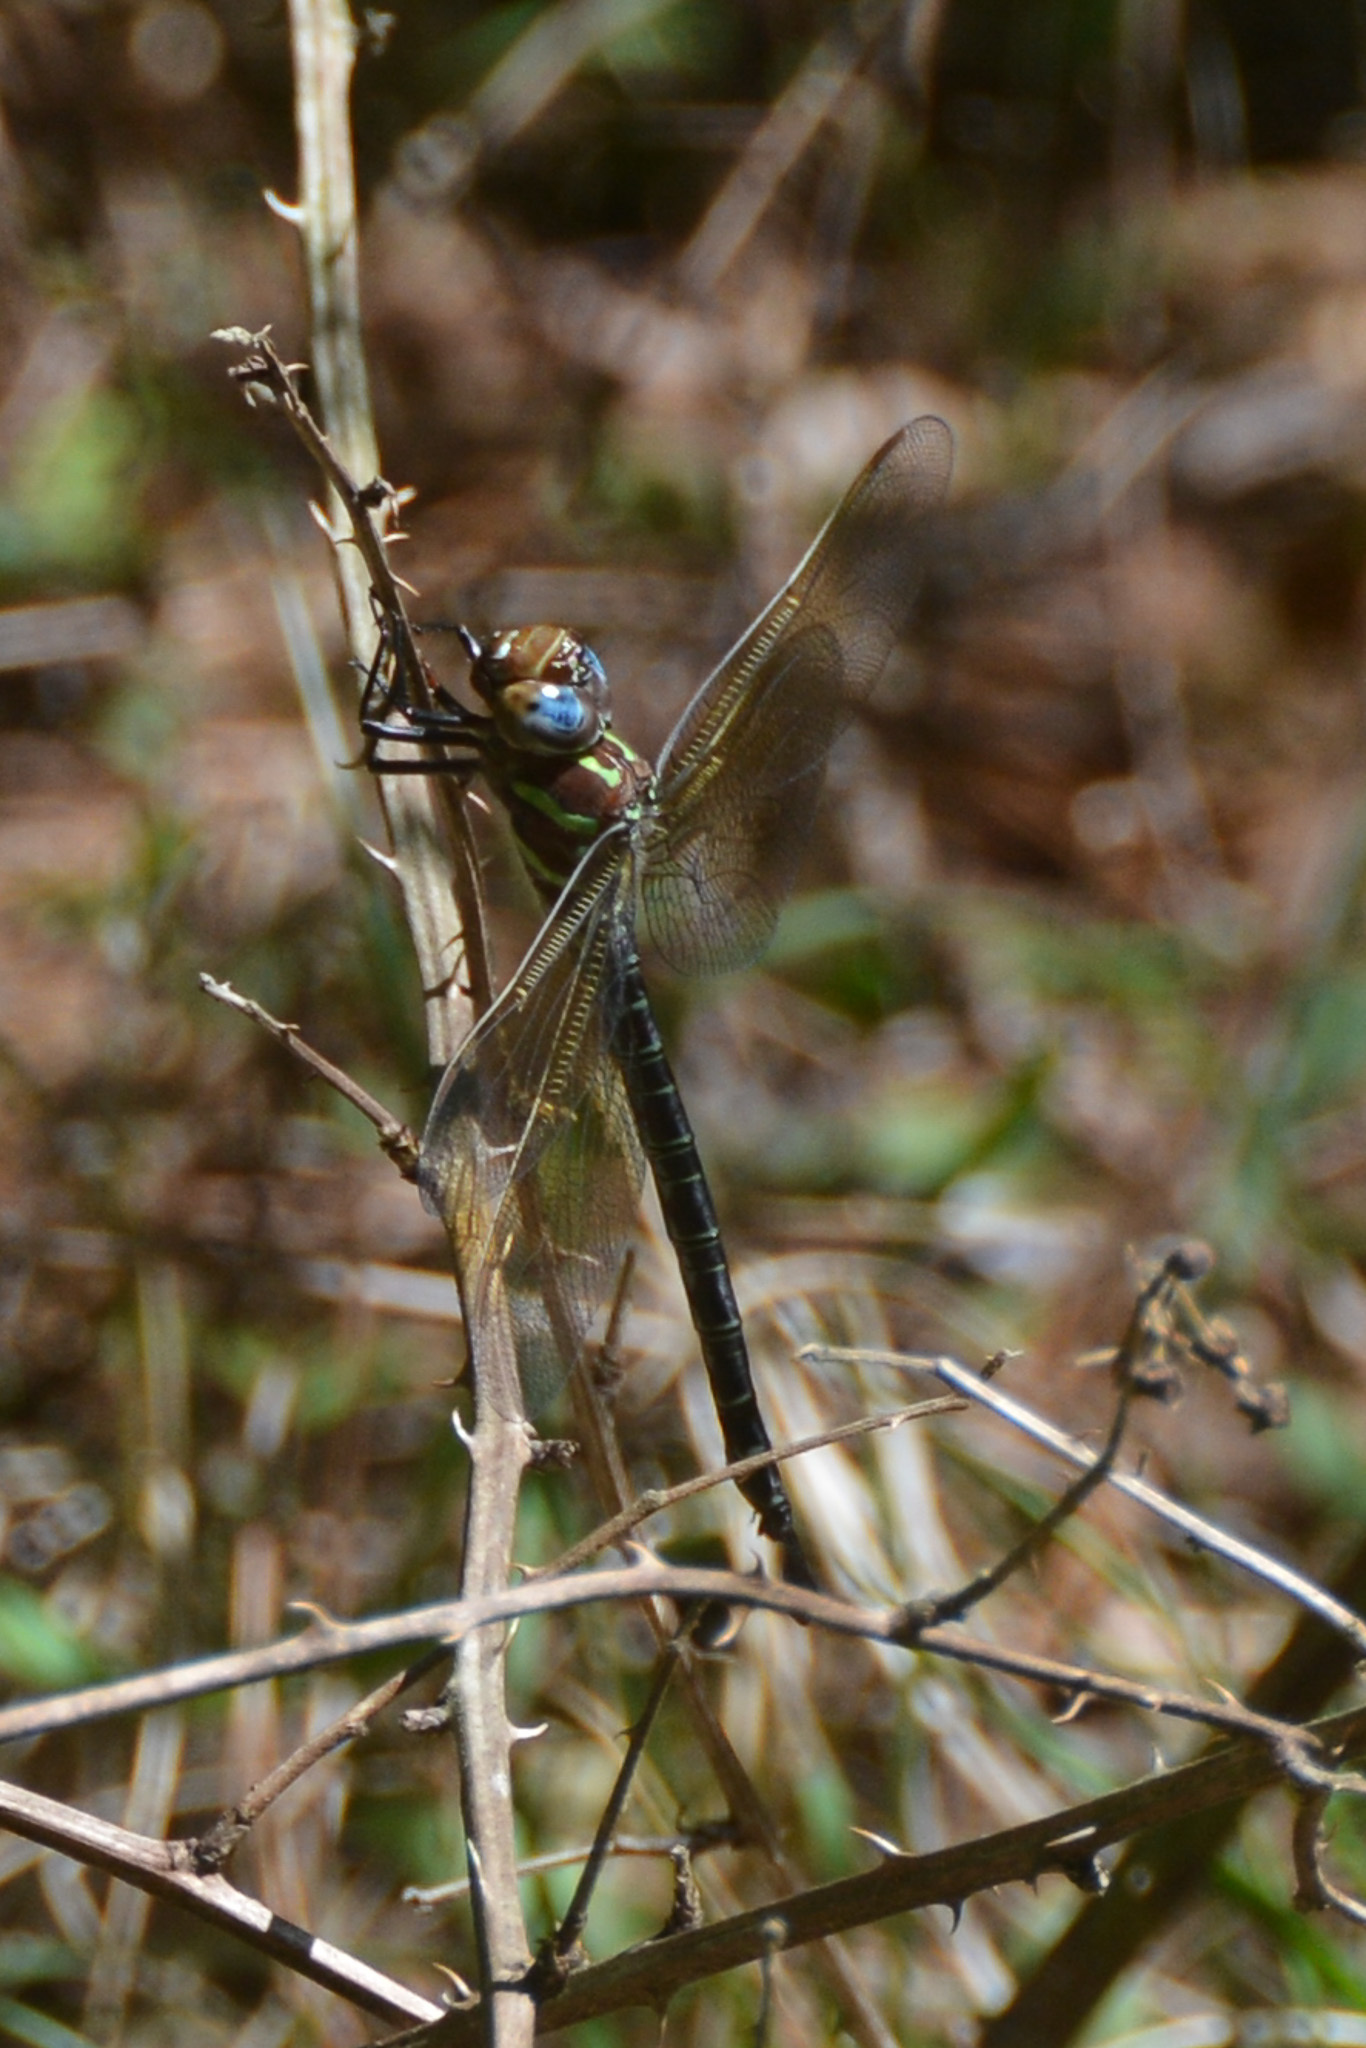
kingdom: Animalia
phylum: Arthropoda
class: Insecta
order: Odonata
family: Aeshnidae
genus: Epiaeschna
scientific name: Epiaeschna heros
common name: Swamp darner
